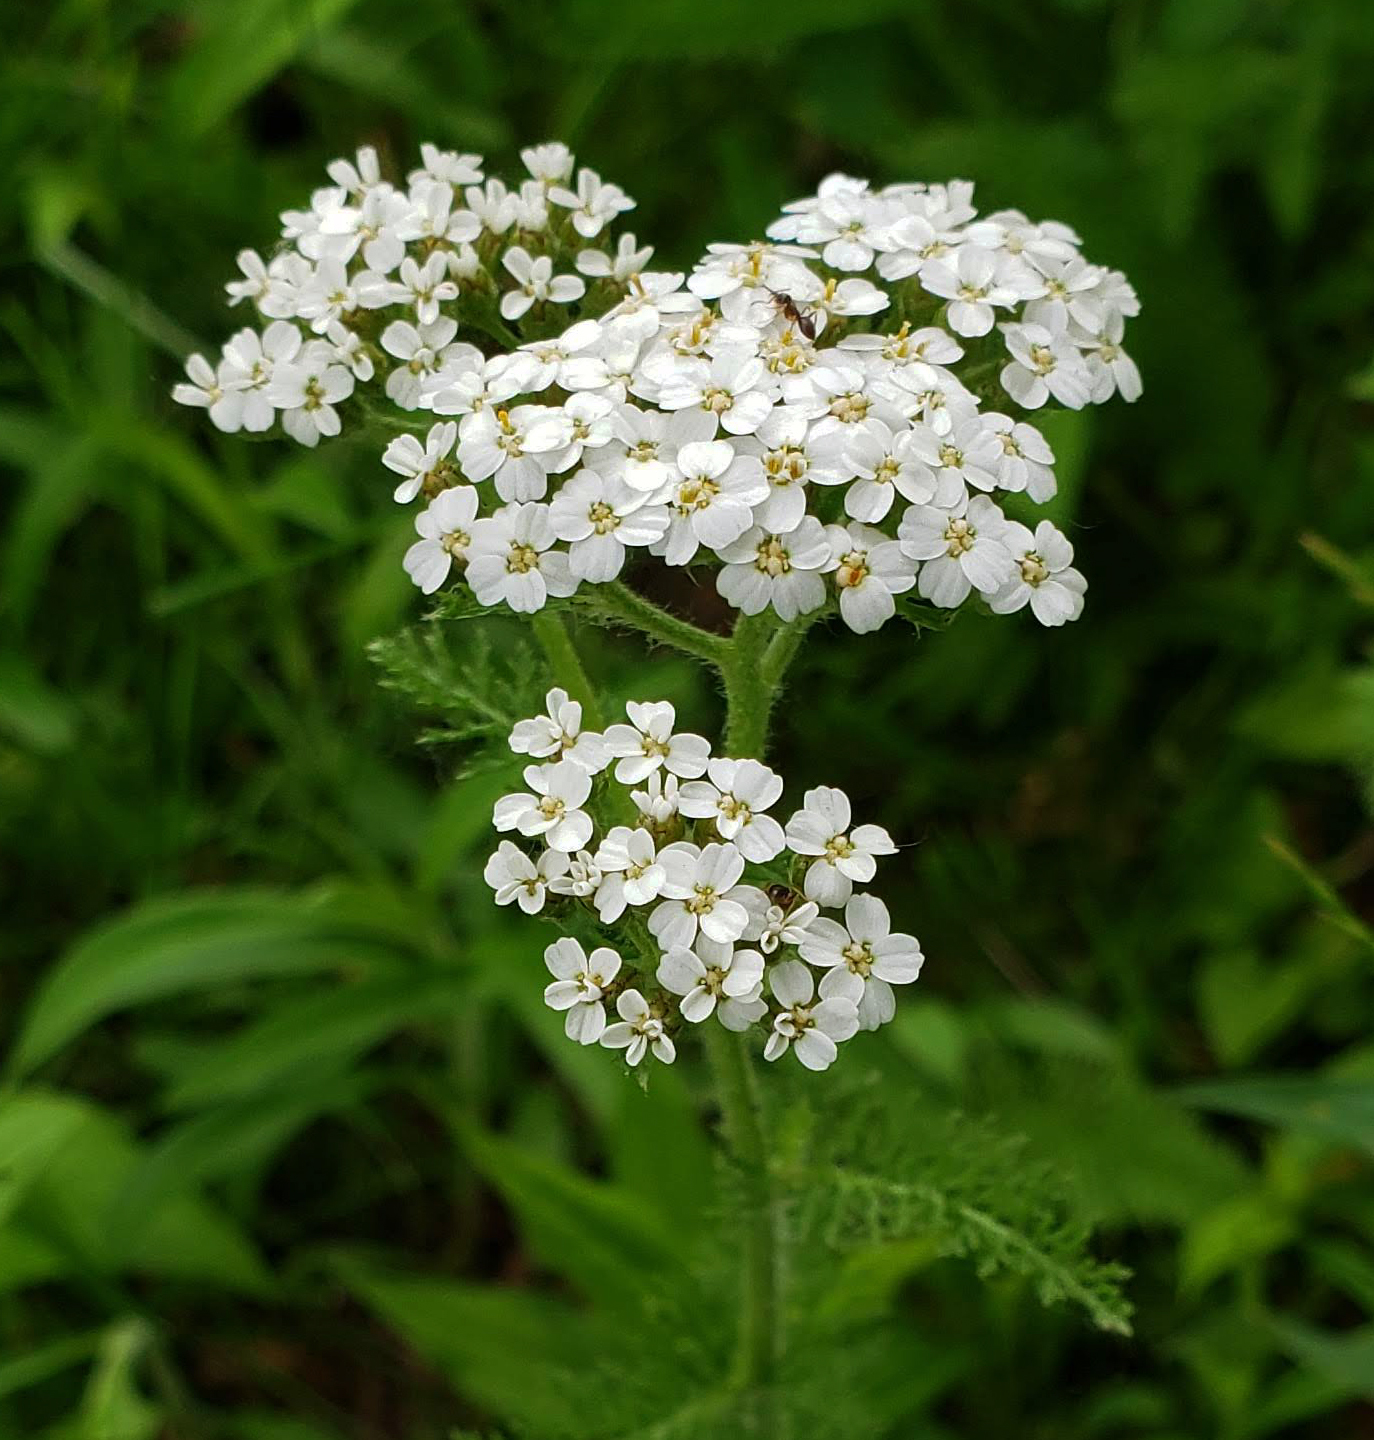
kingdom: Plantae
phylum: Tracheophyta
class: Magnoliopsida
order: Asterales
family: Asteraceae
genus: Achillea
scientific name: Achillea millefolium
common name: Yarrow
